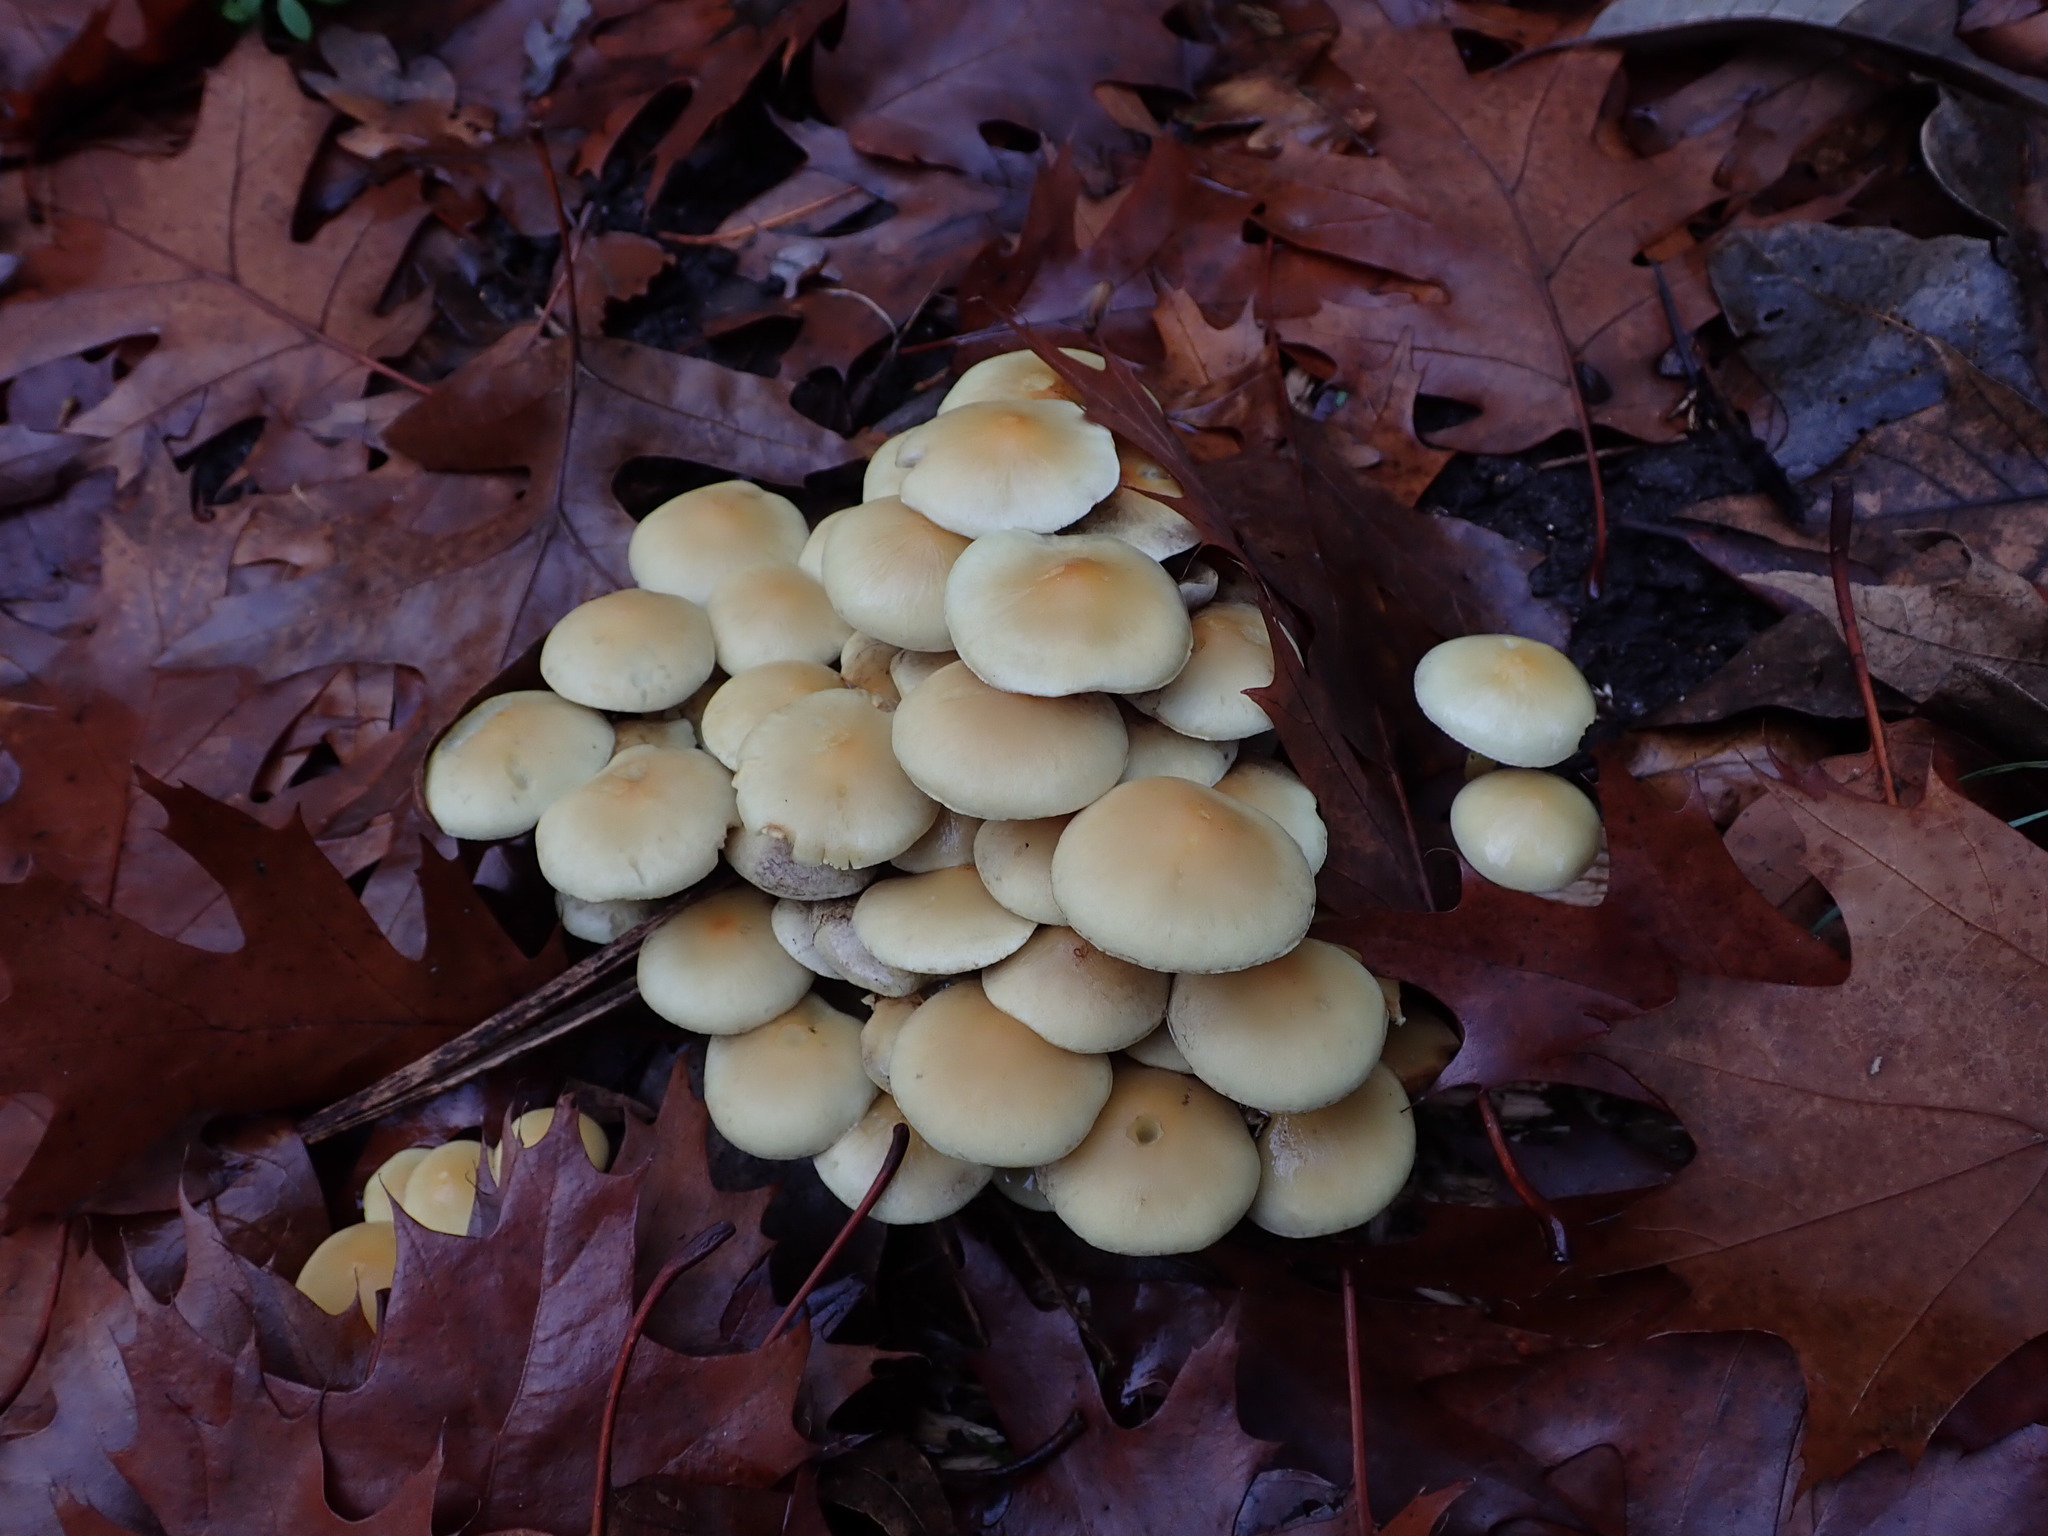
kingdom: Fungi
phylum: Basidiomycota
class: Agaricomycetes
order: Agaricales
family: Strophariaceae
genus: Hypholoma
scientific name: Hypholoma fasciculare
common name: Sulphur tuft
